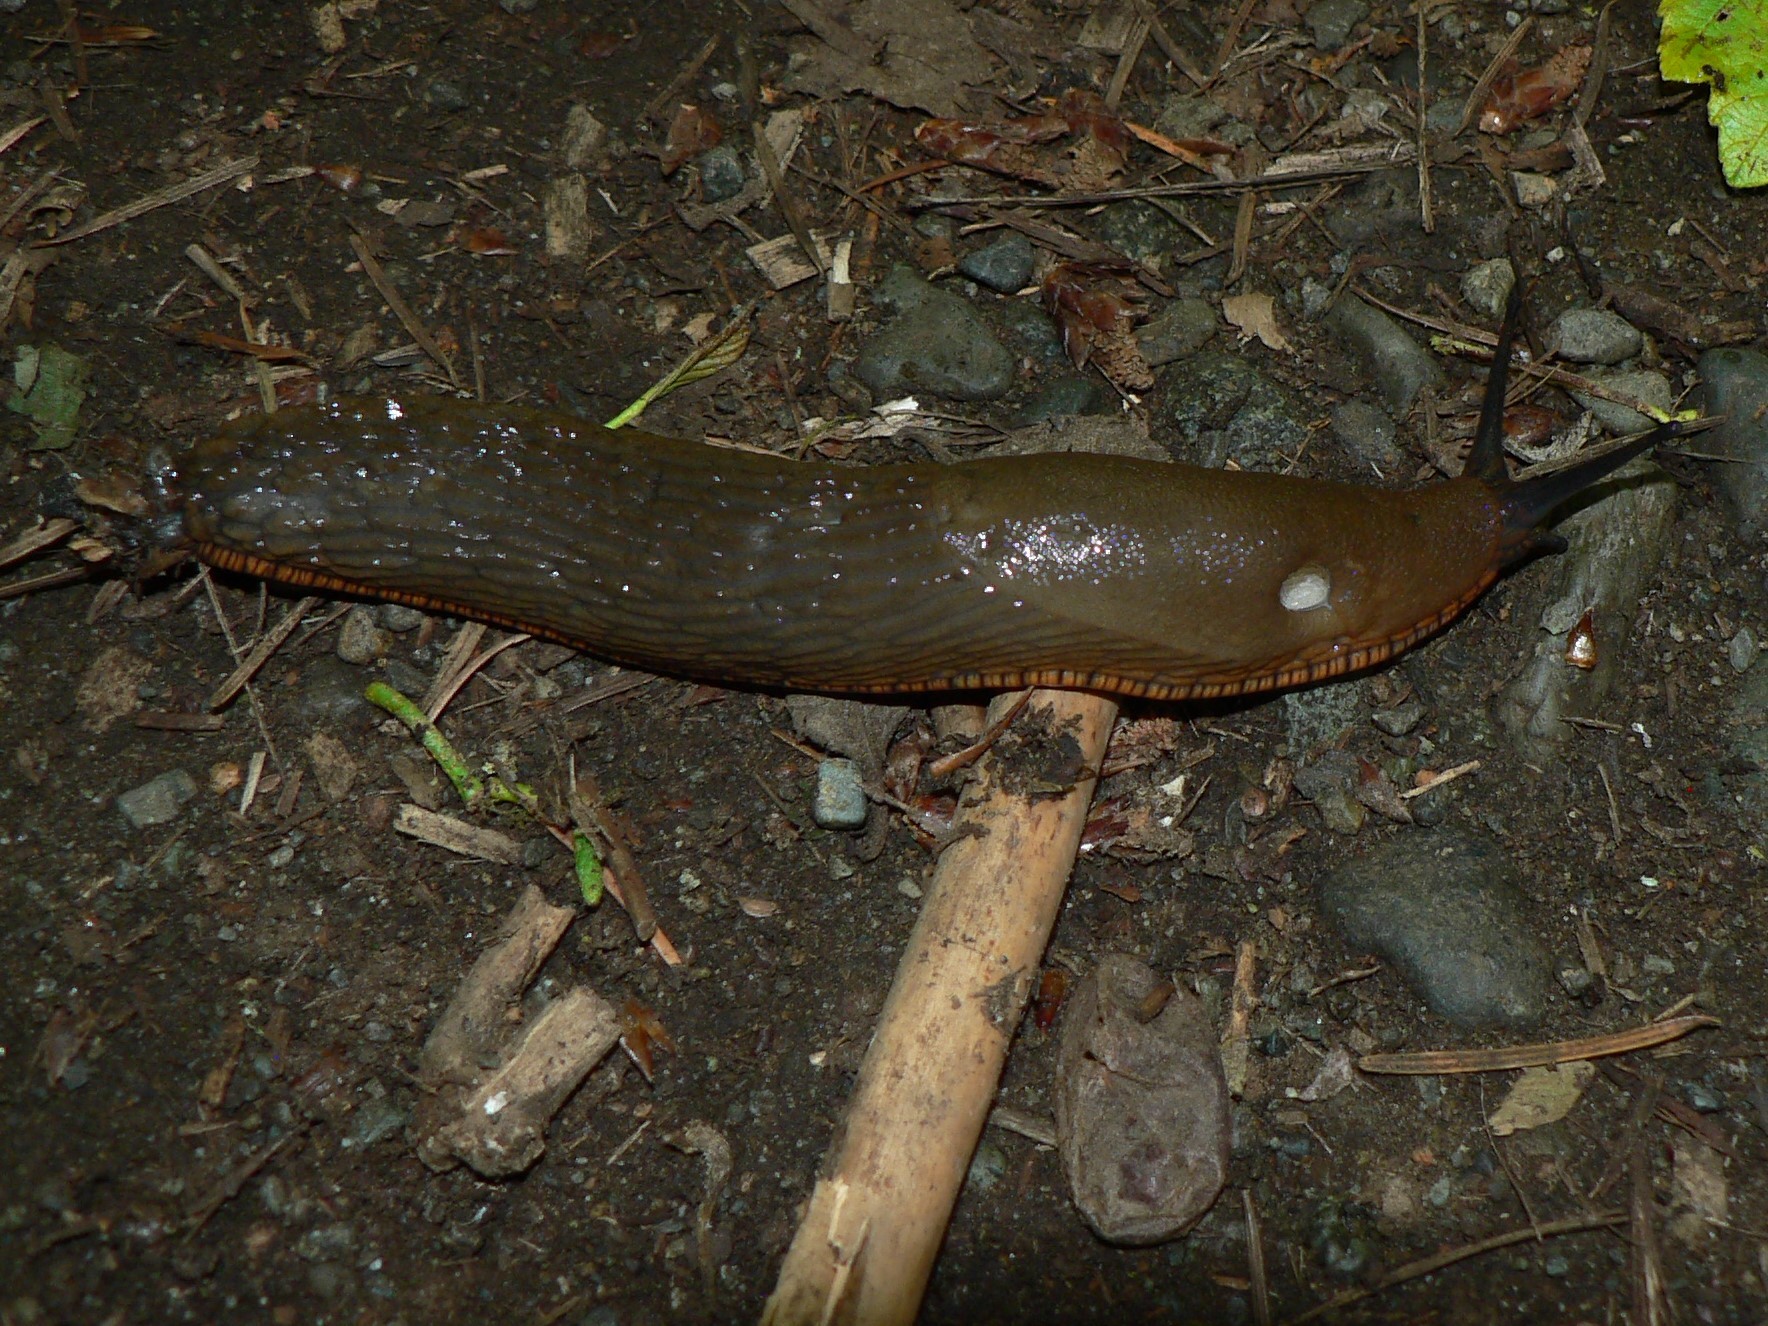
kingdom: Animalia
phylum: Mollusca
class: Gastropoda
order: Stylommatophora
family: Arionidae
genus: Arion
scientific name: Arion rufus
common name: Chocolate arion
